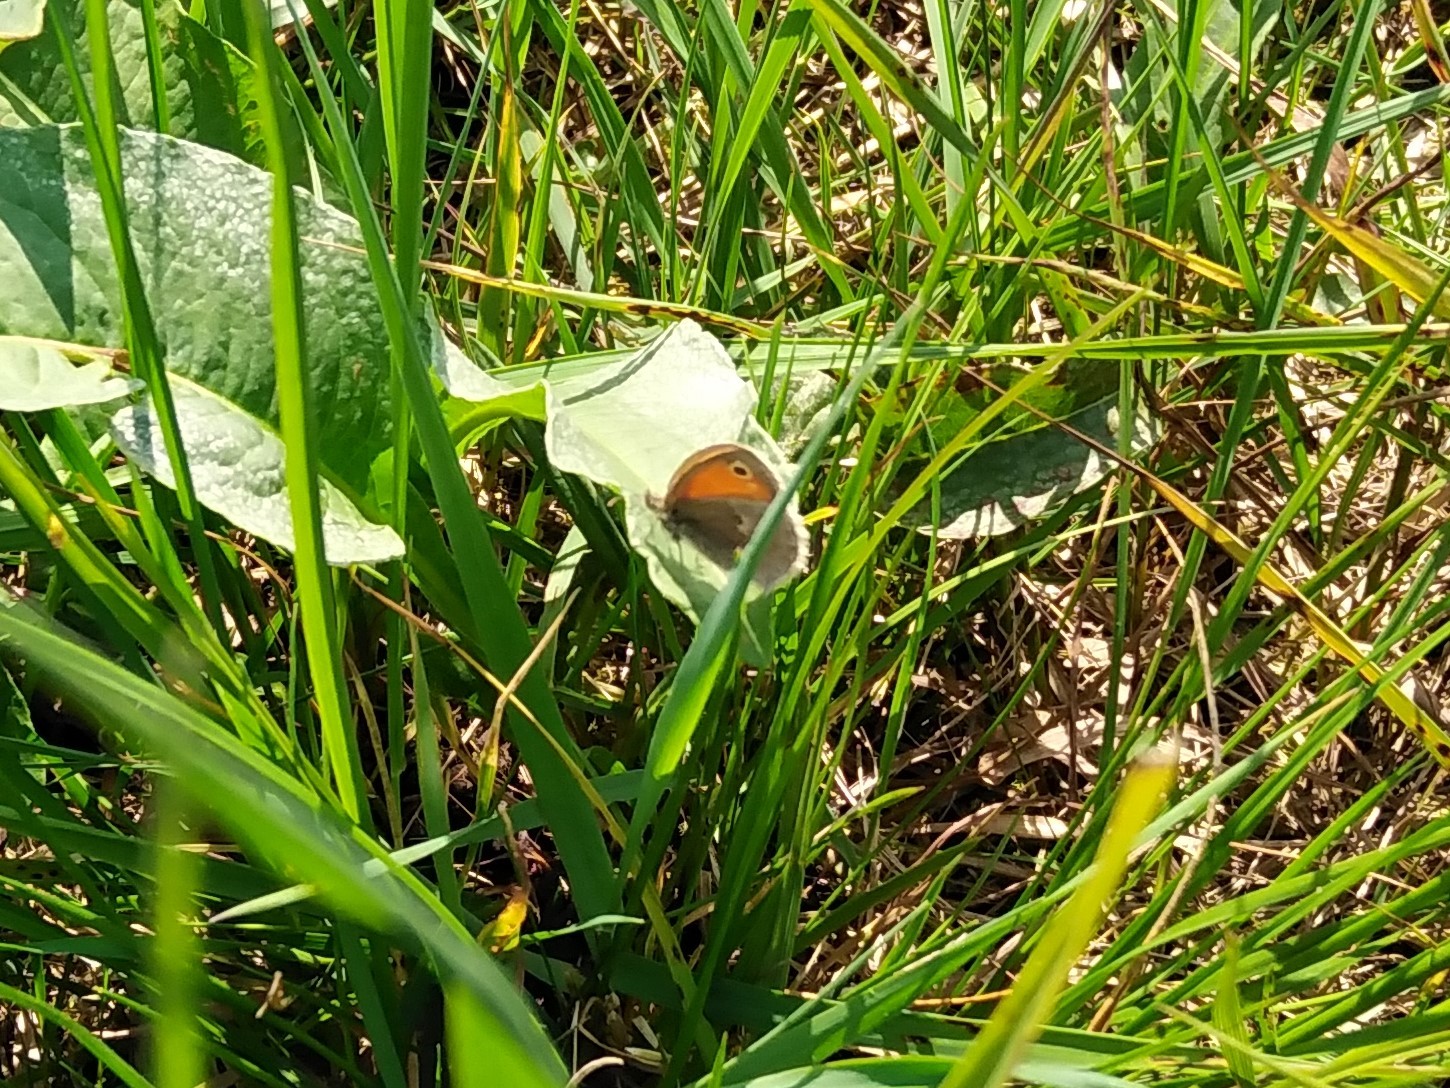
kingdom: Animalia
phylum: Arthropoda
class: Insecta
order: Lepidoptera
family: Nymphalidae
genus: Coenonympha
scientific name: Coenonympha pamphilus
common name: Small heath
